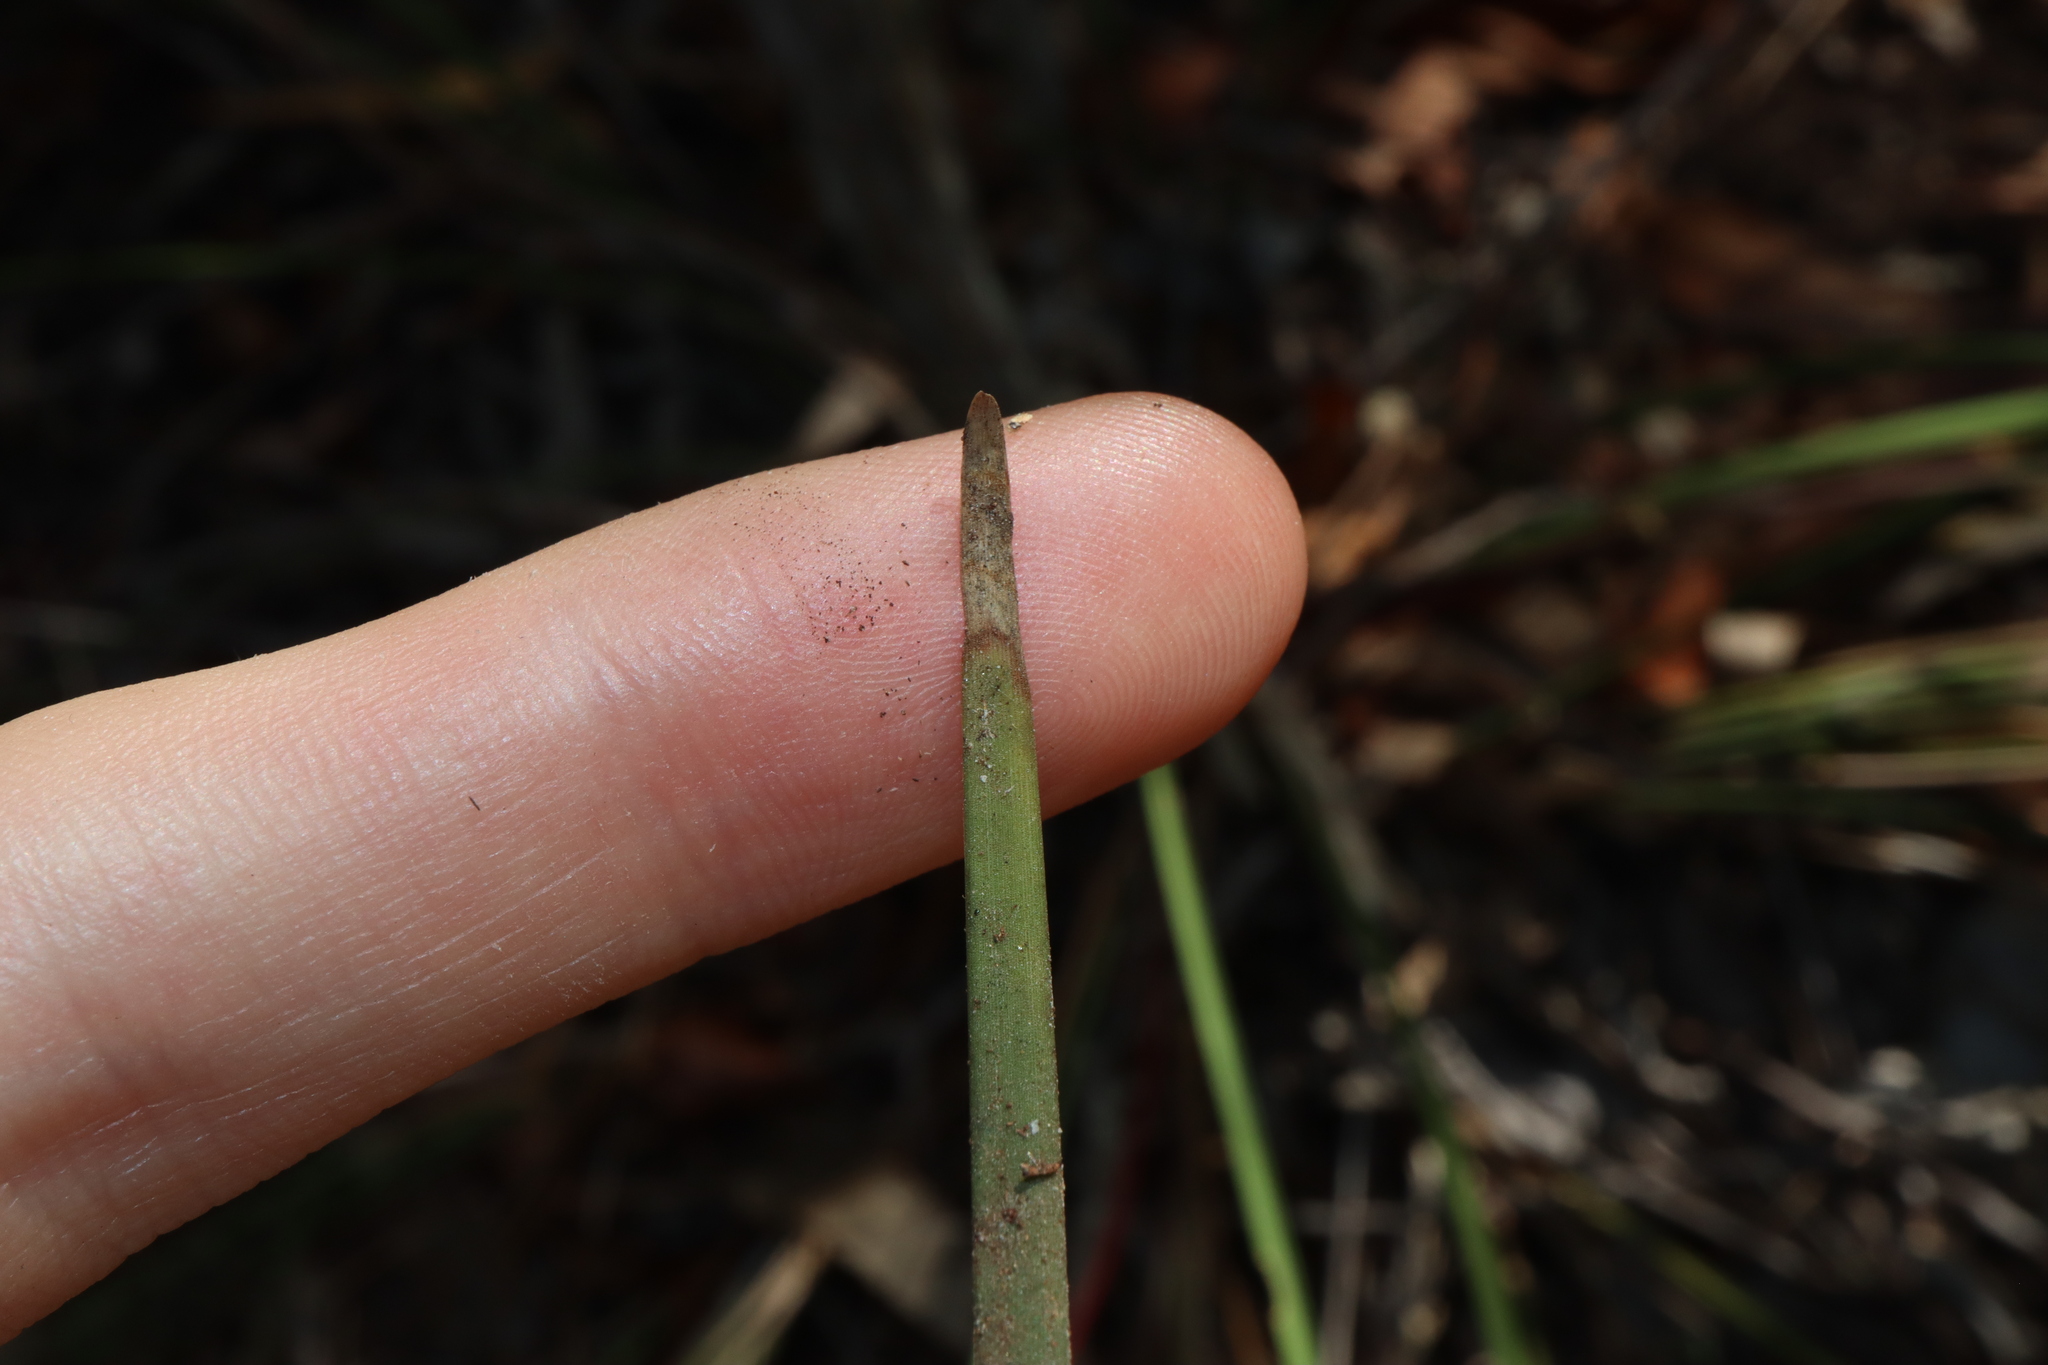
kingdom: Plantae
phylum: Tracheophyta
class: Liliopsida
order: Asparagales
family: Asparagaceae
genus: Lomandra
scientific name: Lomandra multiflora
